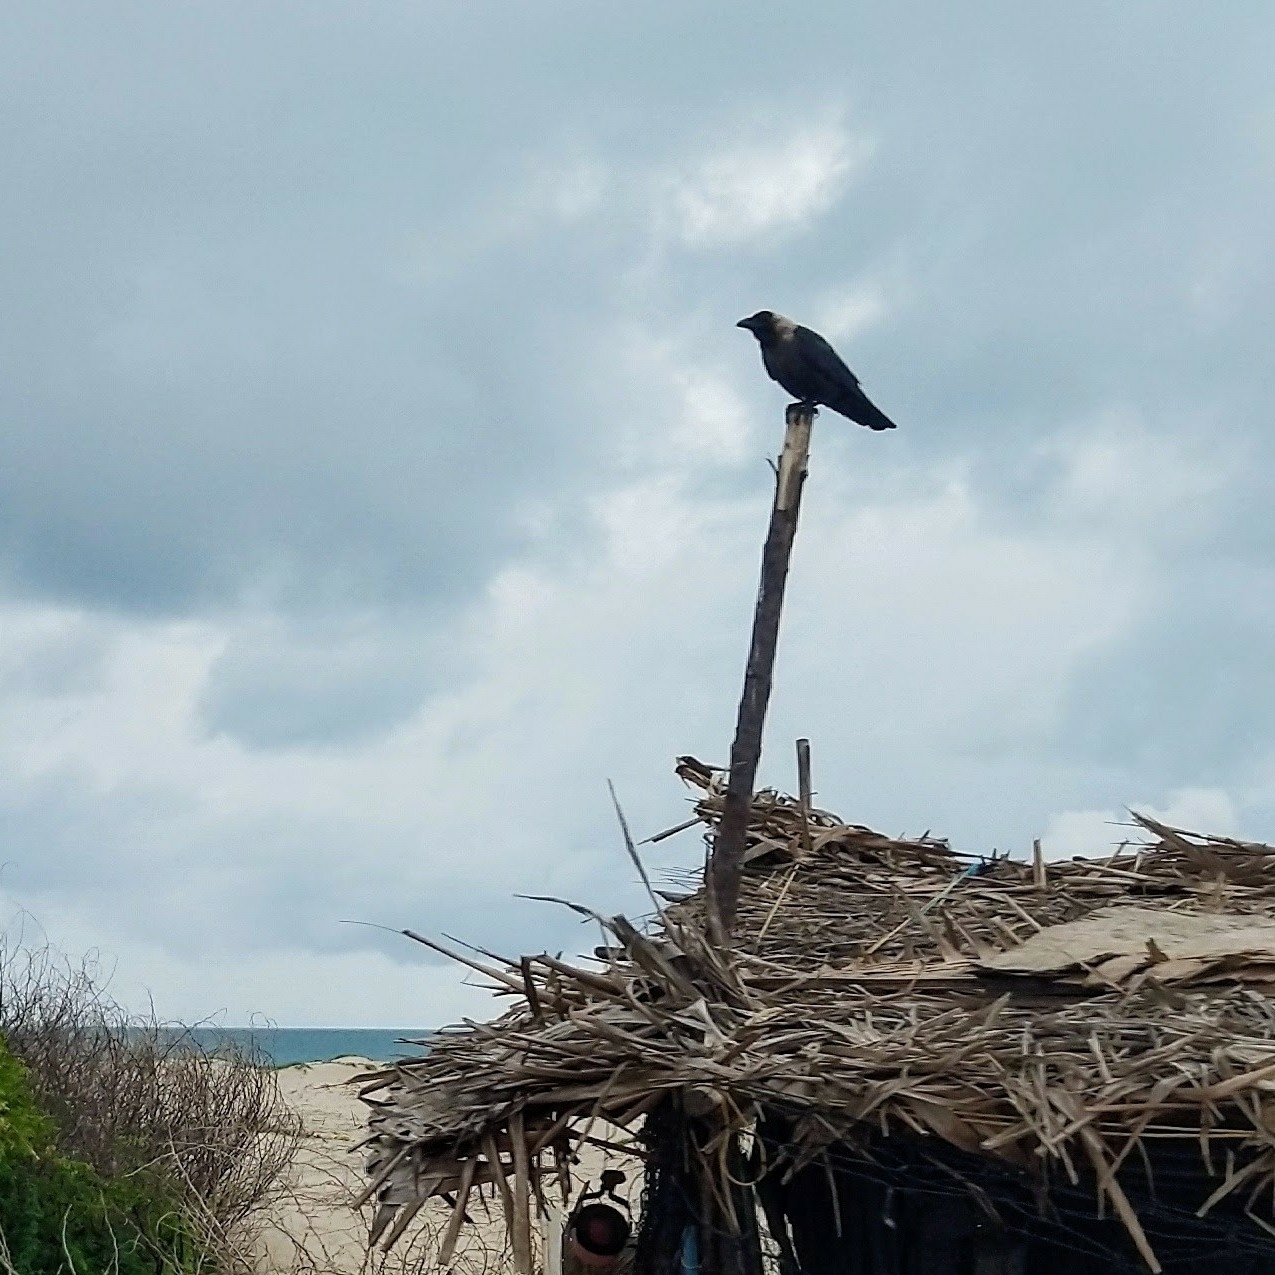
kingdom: Animalia
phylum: Chordata
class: Aves
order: Passeriformes
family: Corvidae
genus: Corvus
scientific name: Corvus splendens
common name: House crow
